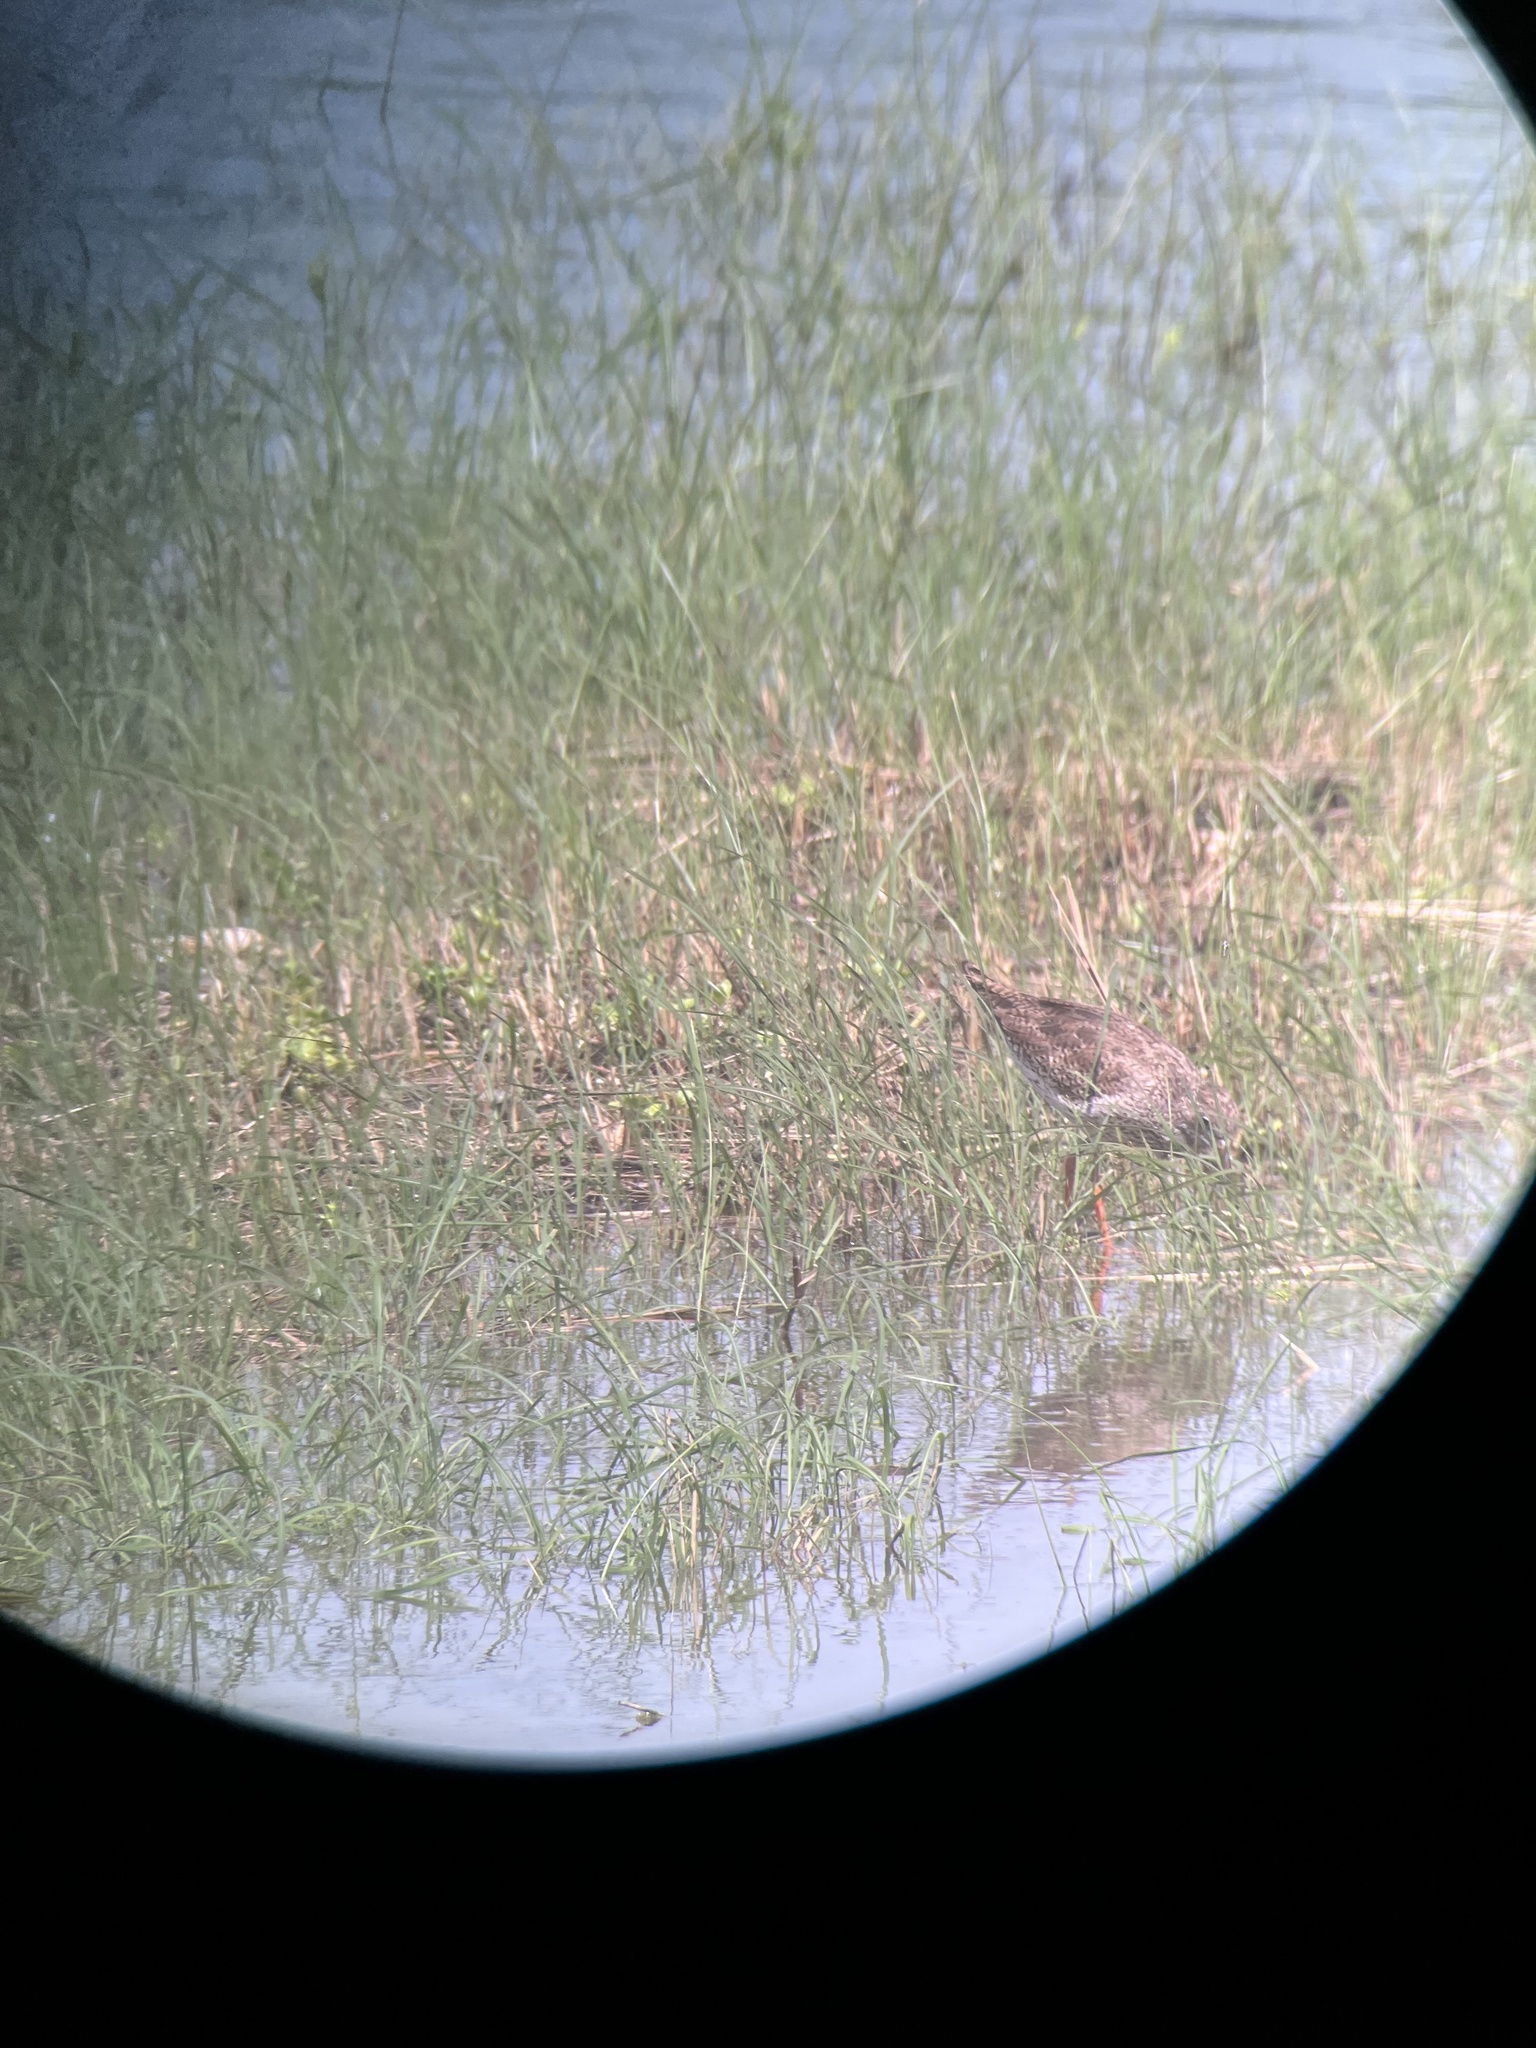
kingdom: Animalia
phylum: Chordata
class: Aves
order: Charadriiformes
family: Scolopacidae
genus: Tringa
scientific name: Tringa totanus
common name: Common redshank
